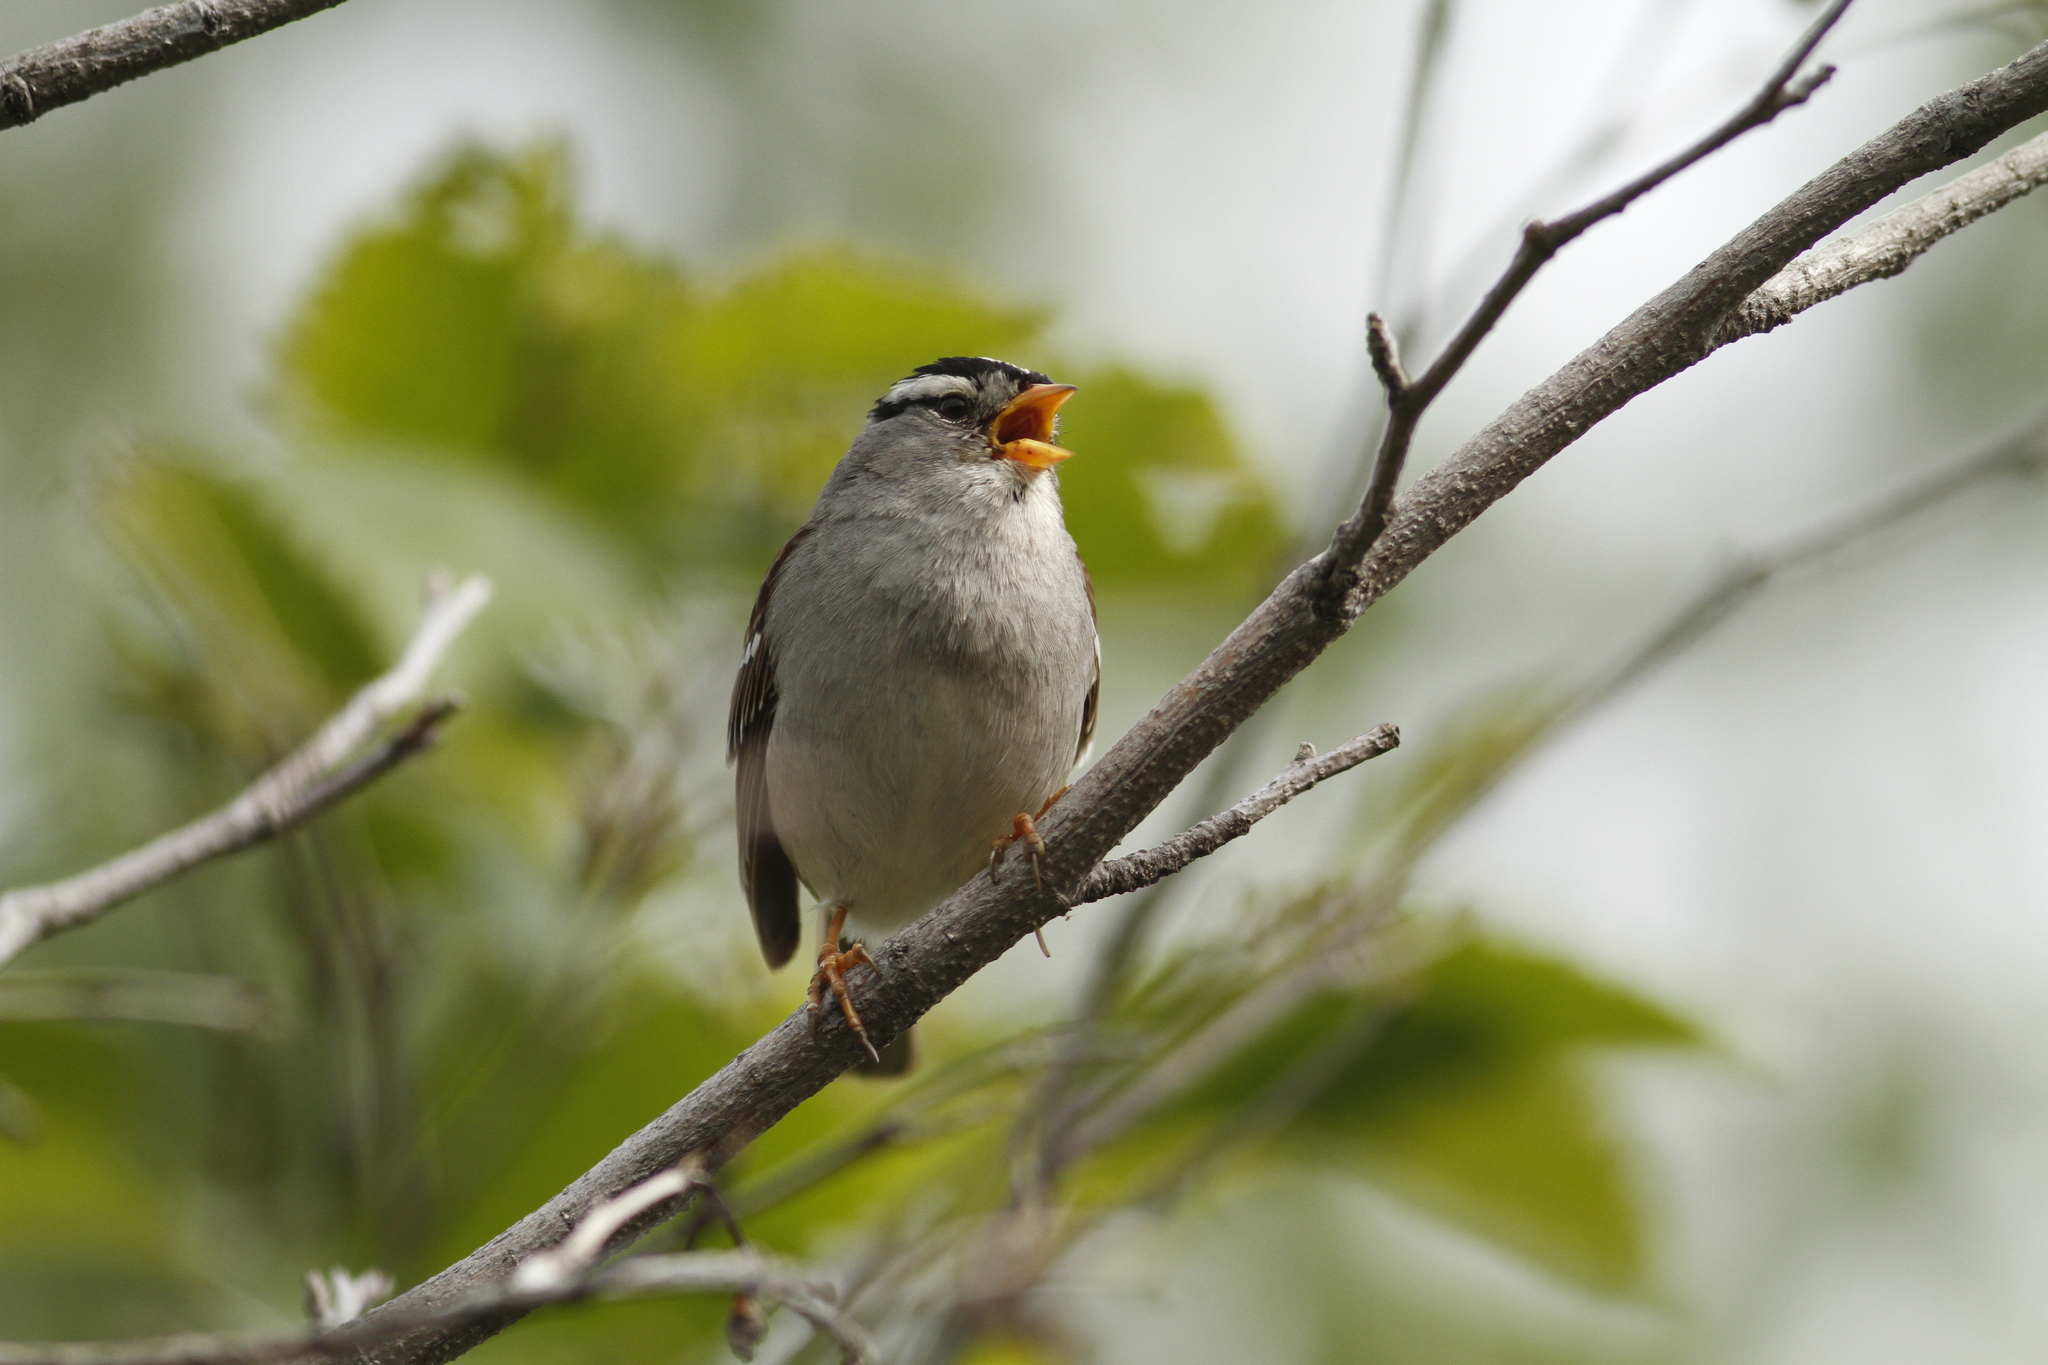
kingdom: Animalia
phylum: Chordata
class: Aves
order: Passeriformes
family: Passerellidae
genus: Zonotrichia
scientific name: Zonotrichia leucophrys
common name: White-crowned sparrow
